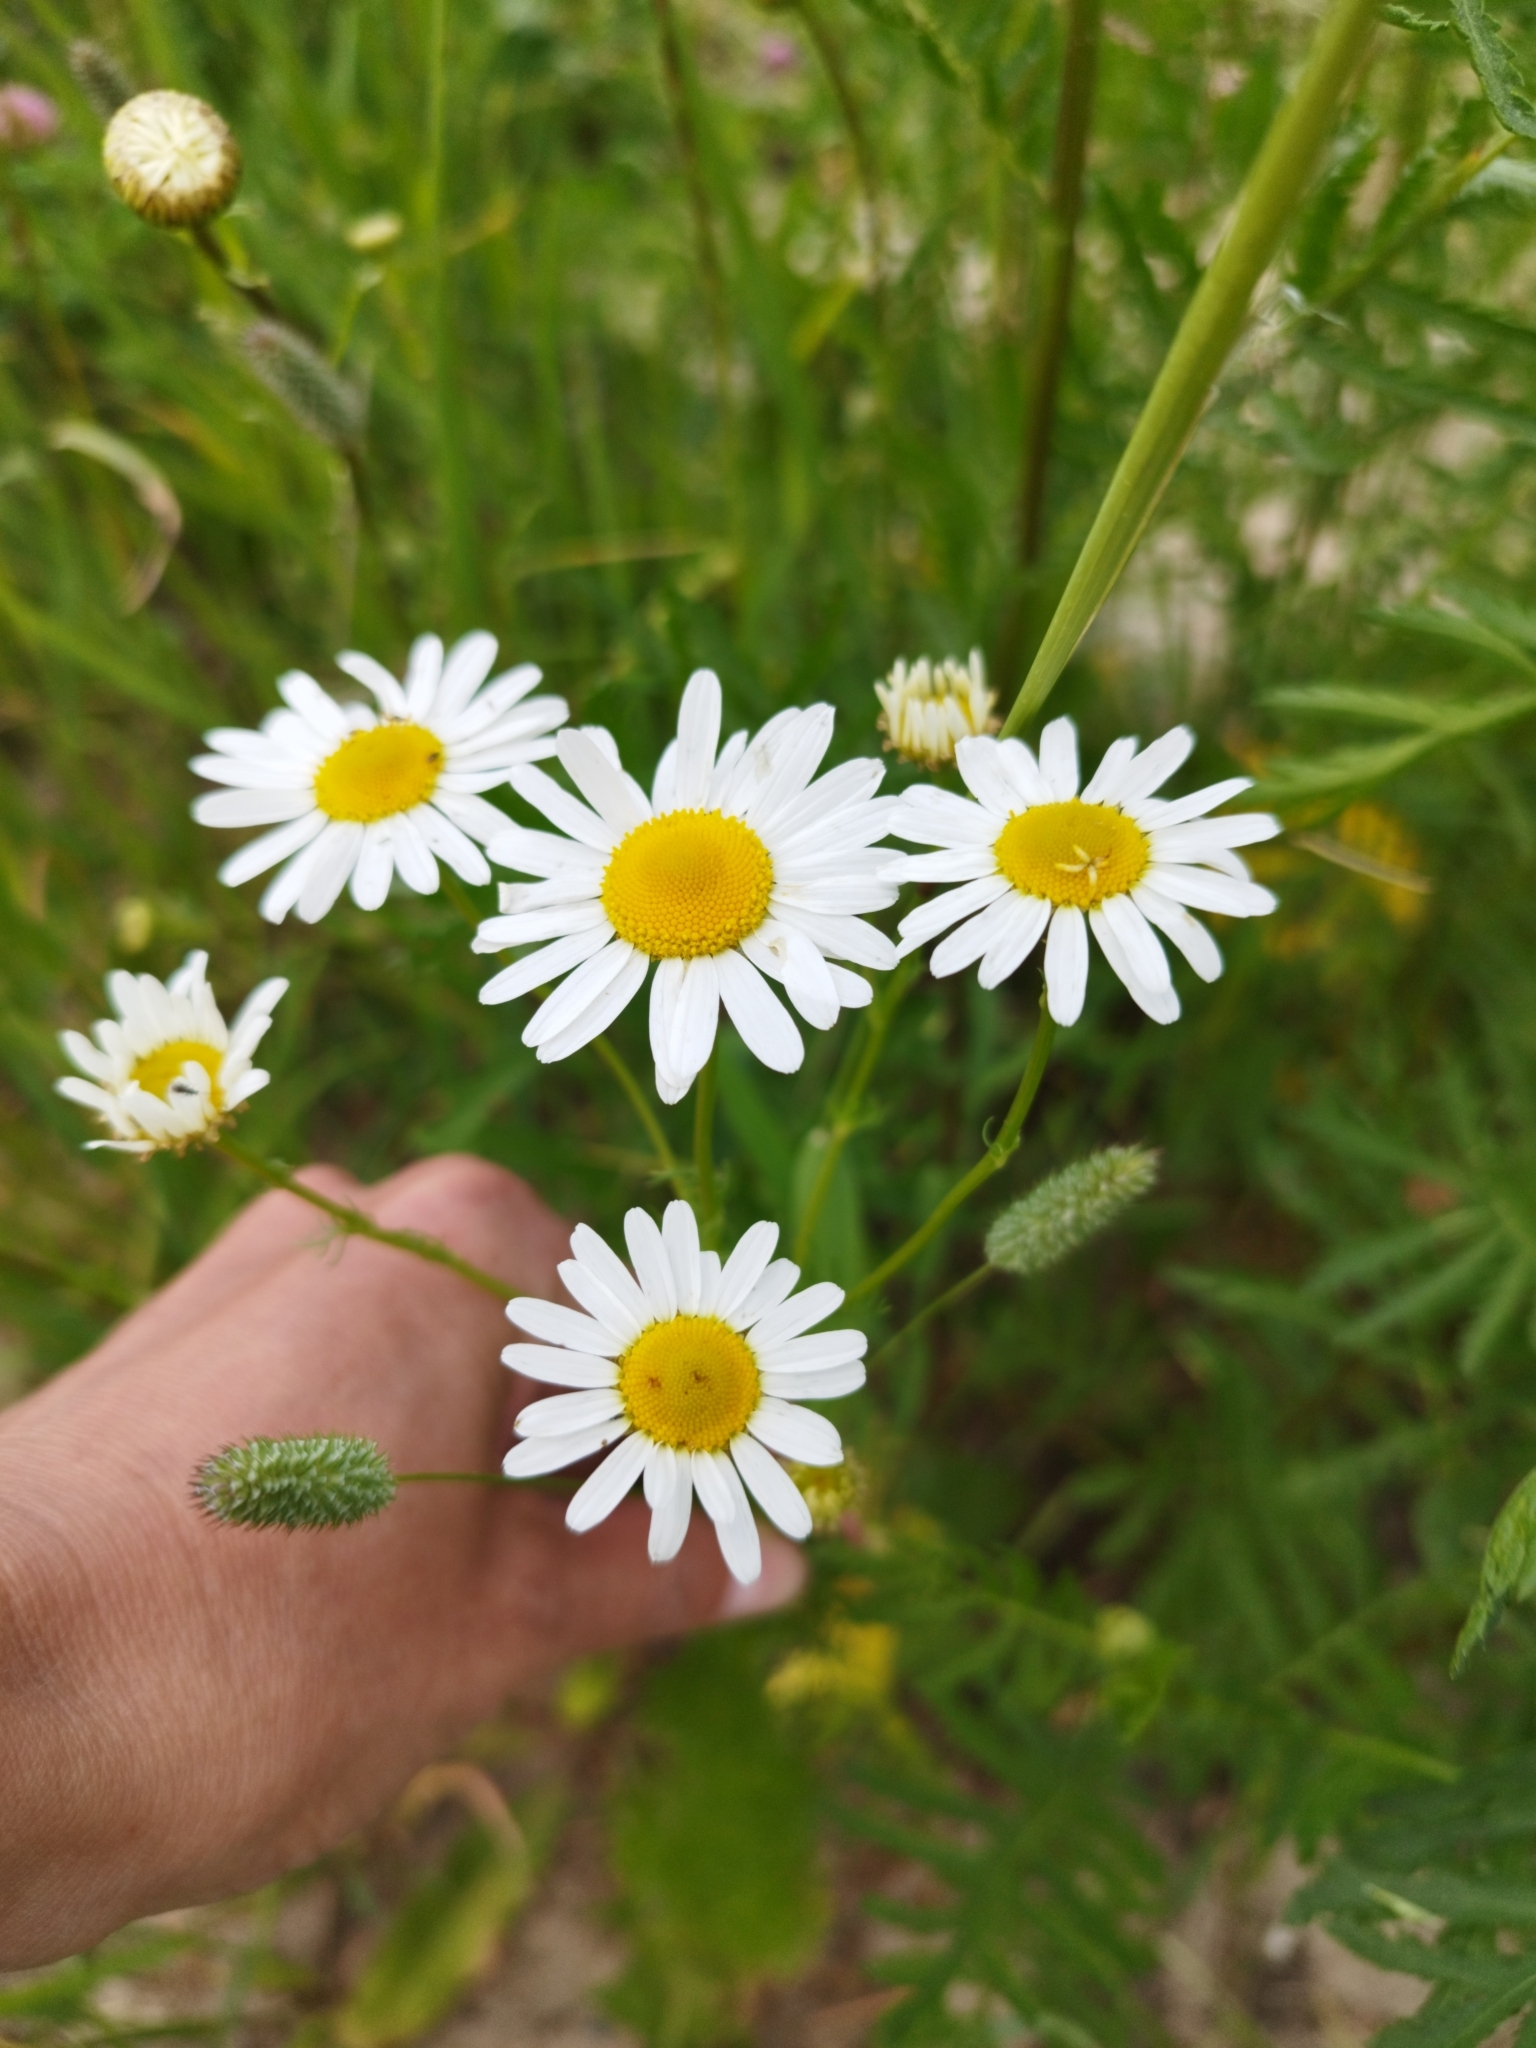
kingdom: Plantae
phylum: Tracheophyta
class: Magnoliopsida
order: Asterales
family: Asteraceae
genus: Tripleurospermum
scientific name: Tripleurospermum inodorum
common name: Scentless mayweed
